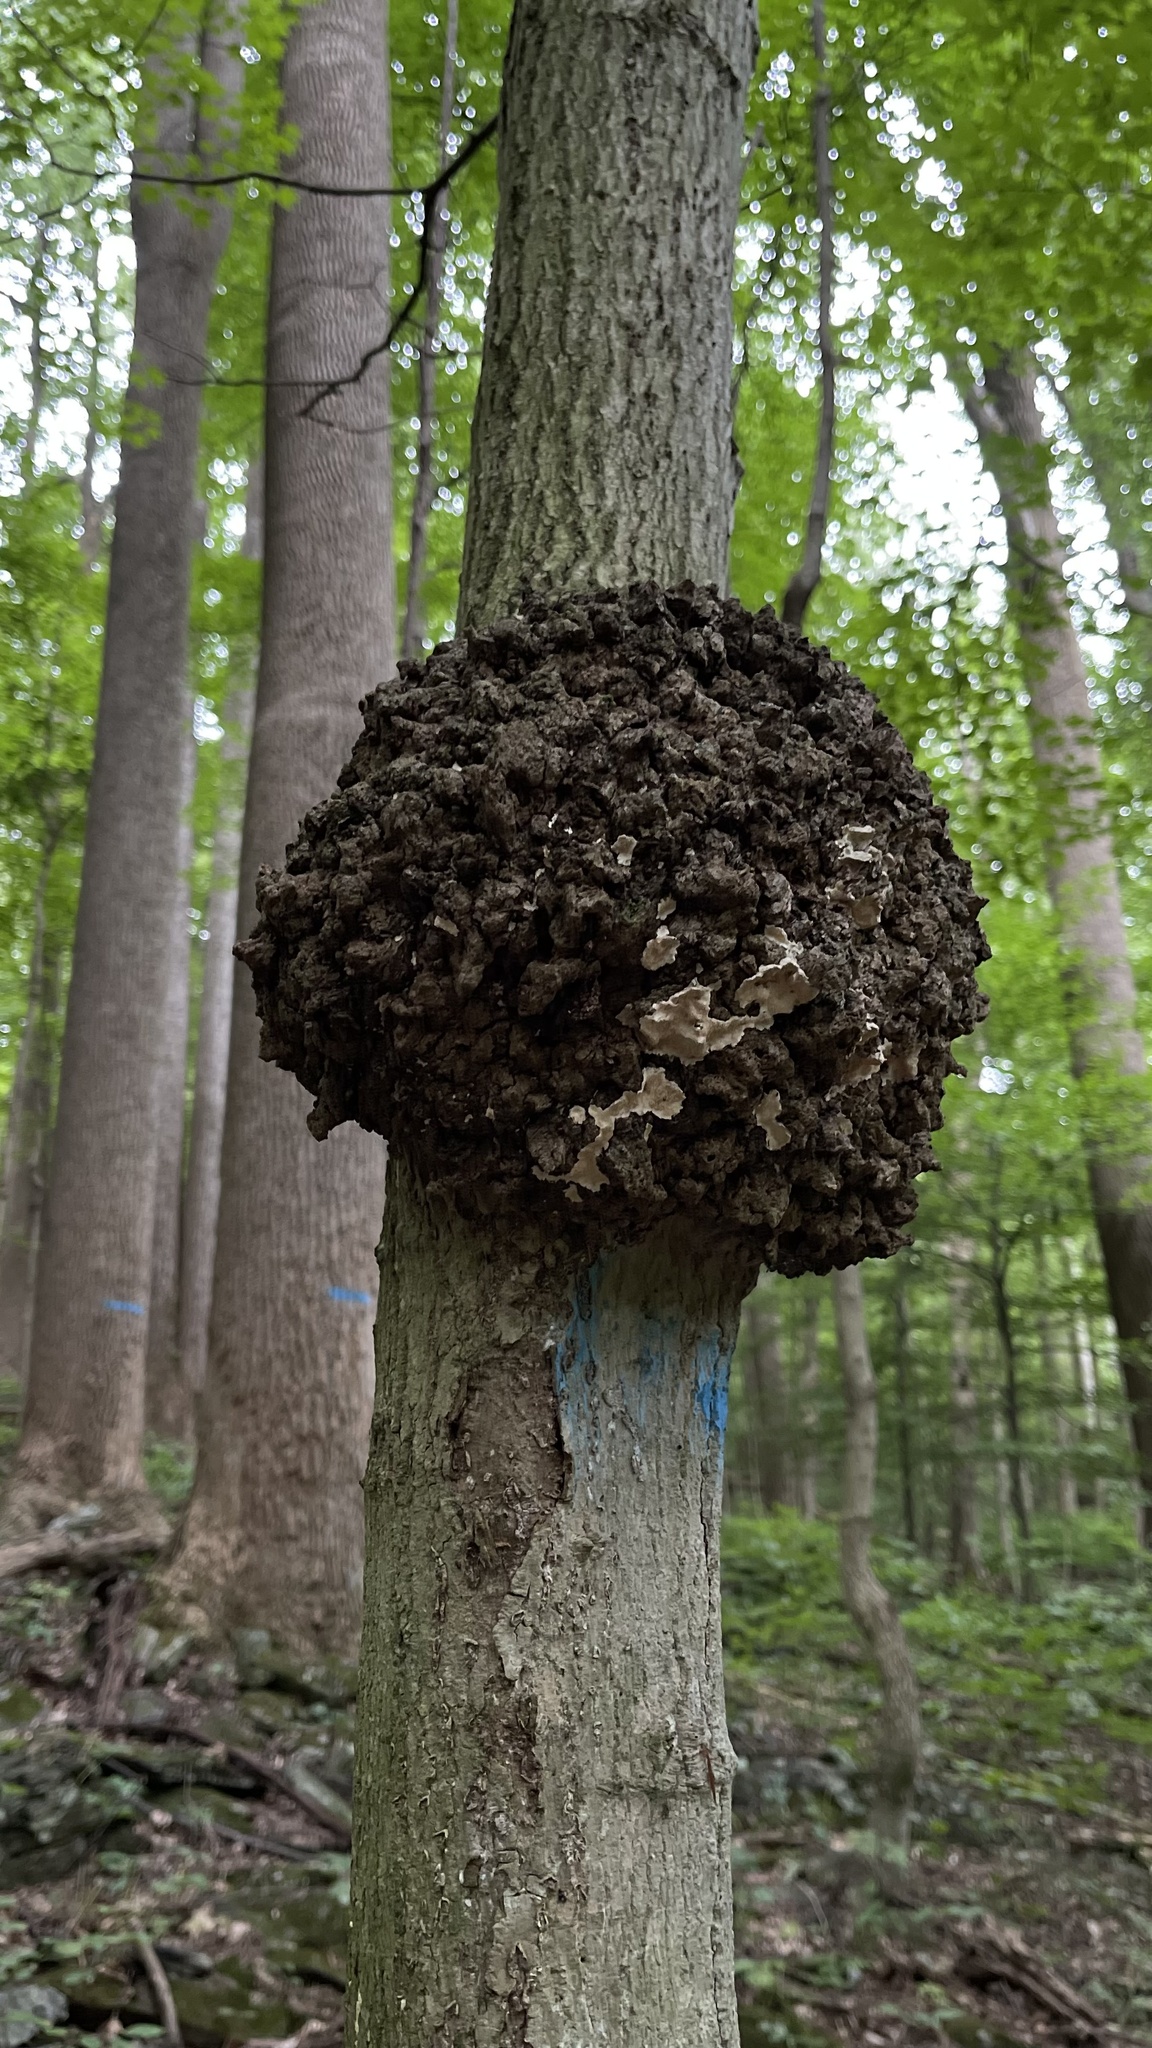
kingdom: Bacteria
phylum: Proteobacteria
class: Alphaproteobacteria
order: Rhizobiales
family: Rhizobiaceae
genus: Rhizobium
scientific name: Rhizobium Agrobacterium radiobacter
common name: Bacterial crown gall
